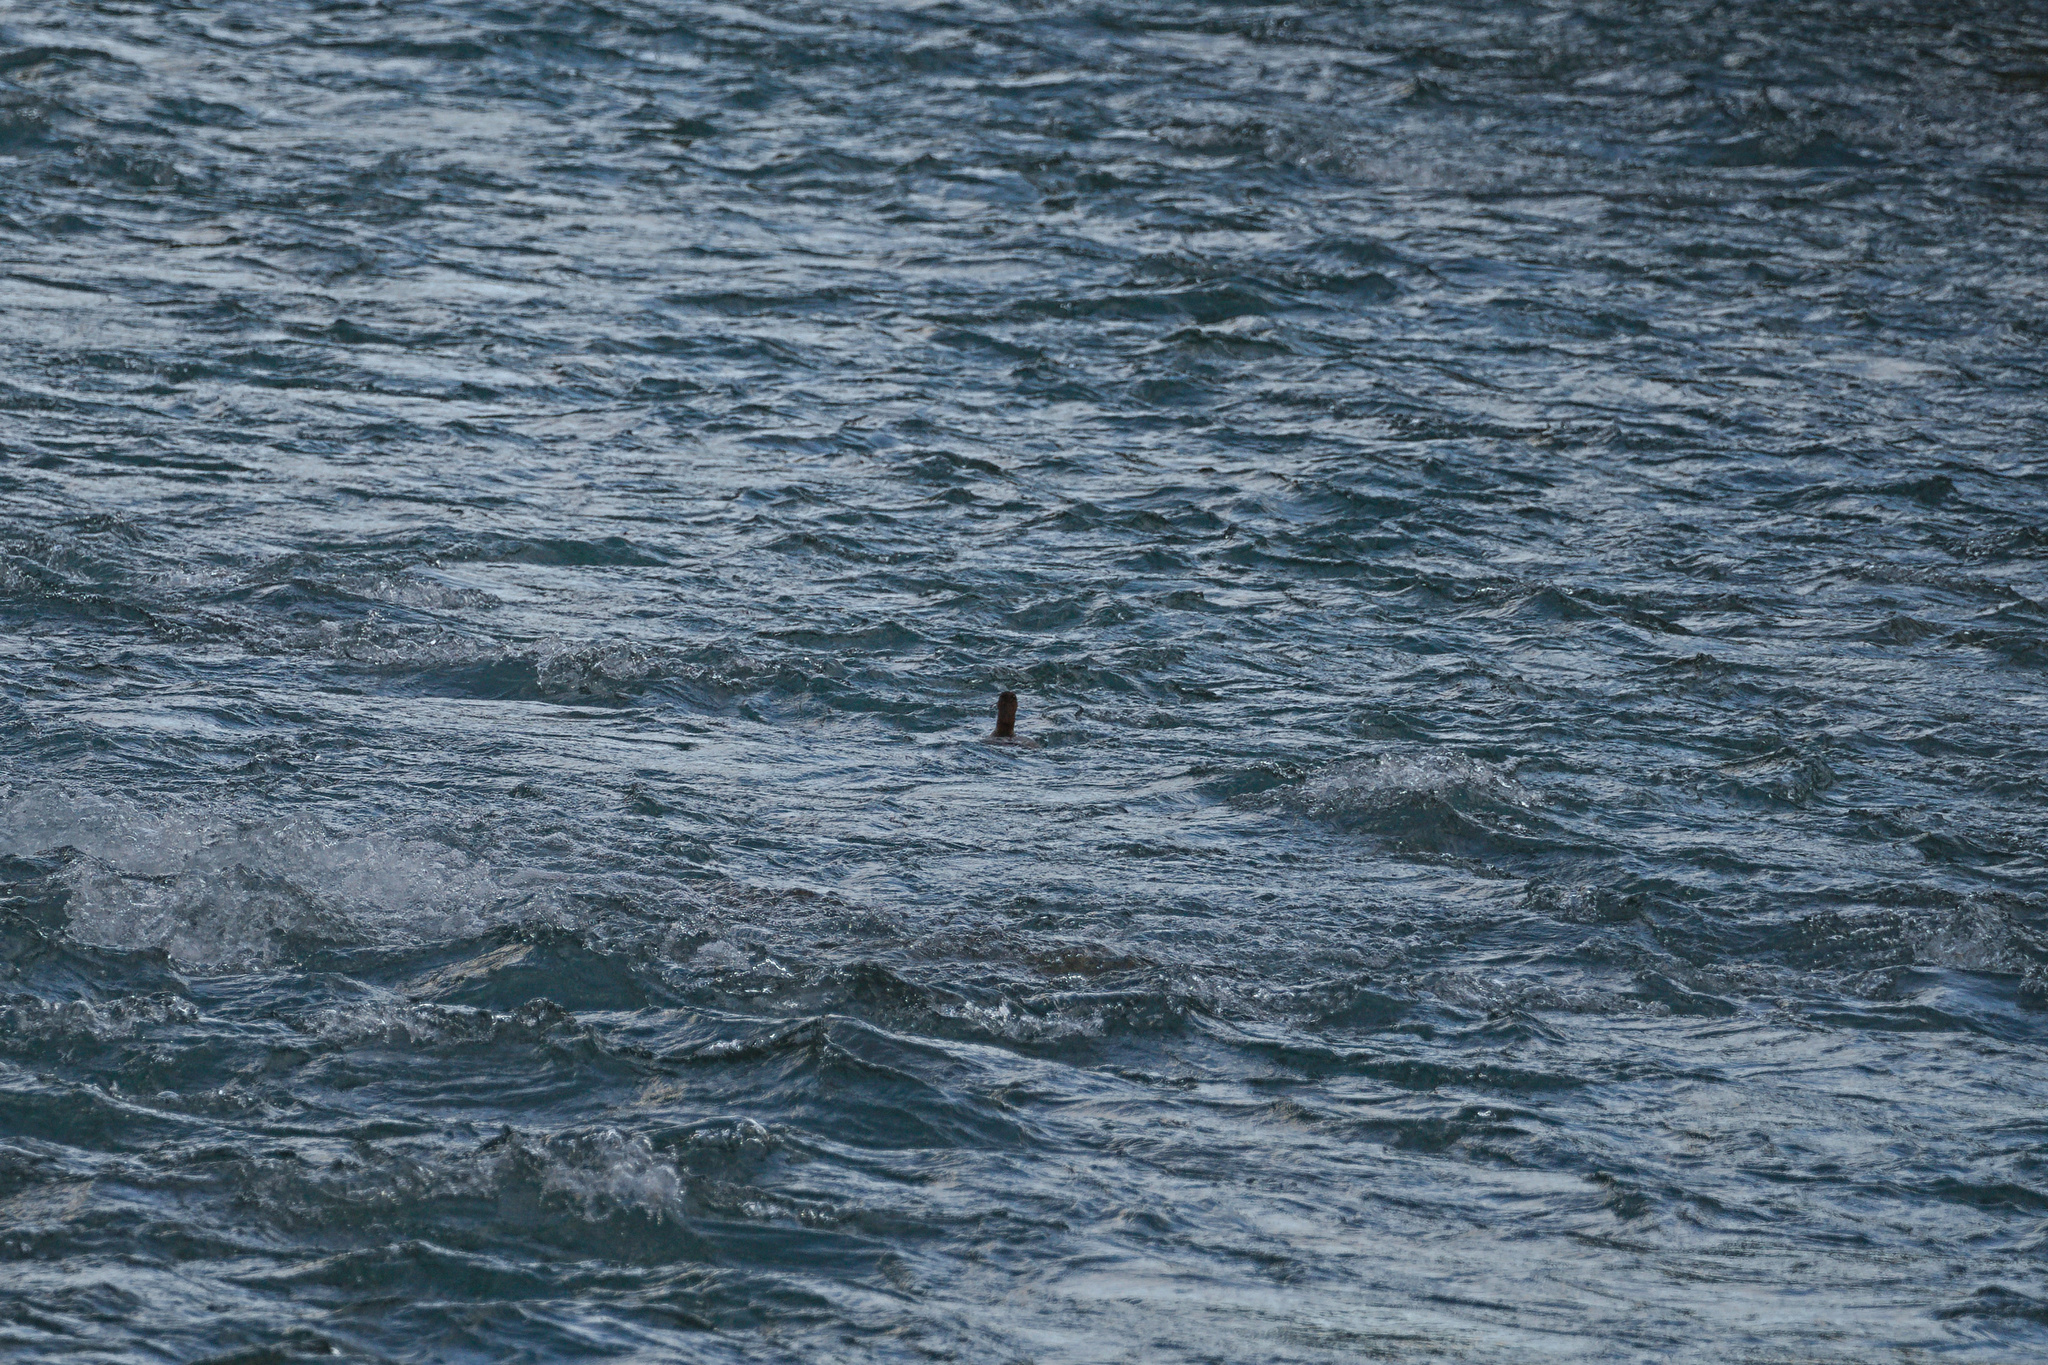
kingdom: Animalia
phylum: Chordata
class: Aves
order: Anseriformes
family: Anatidae
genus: Mergus
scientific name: Mergus merganser
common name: Common merganser
